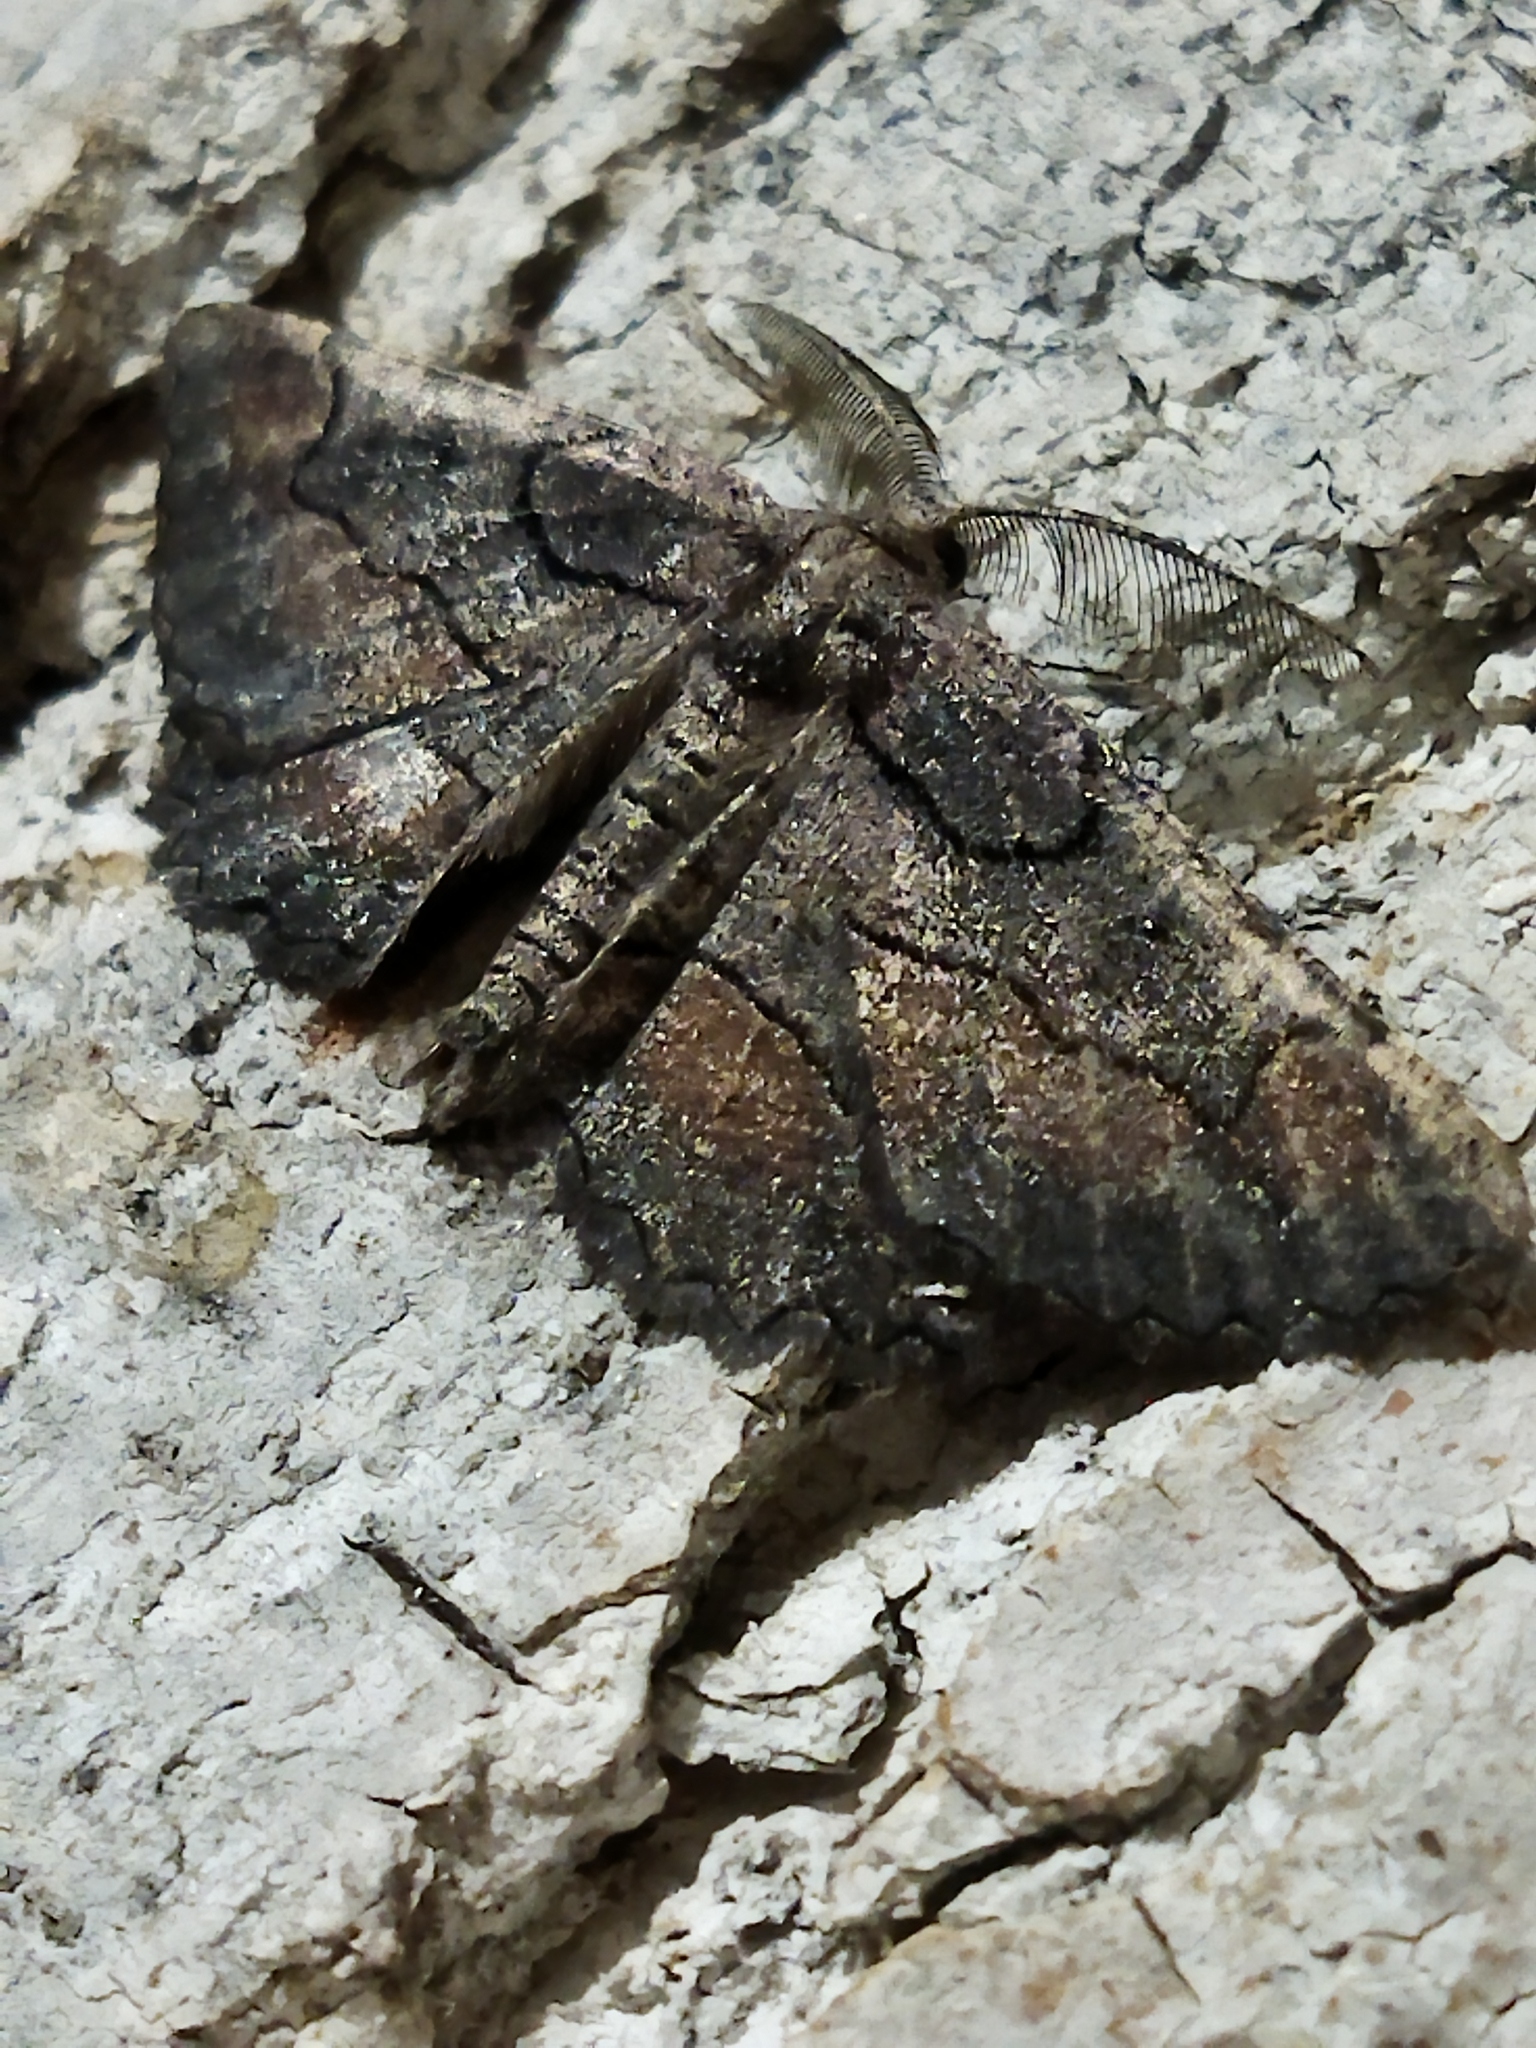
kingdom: Animalia
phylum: Arthropoda
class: Insecta
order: Lepidoptera
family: Geometridae
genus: Nychiodes
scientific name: Nychiodes waltheri
